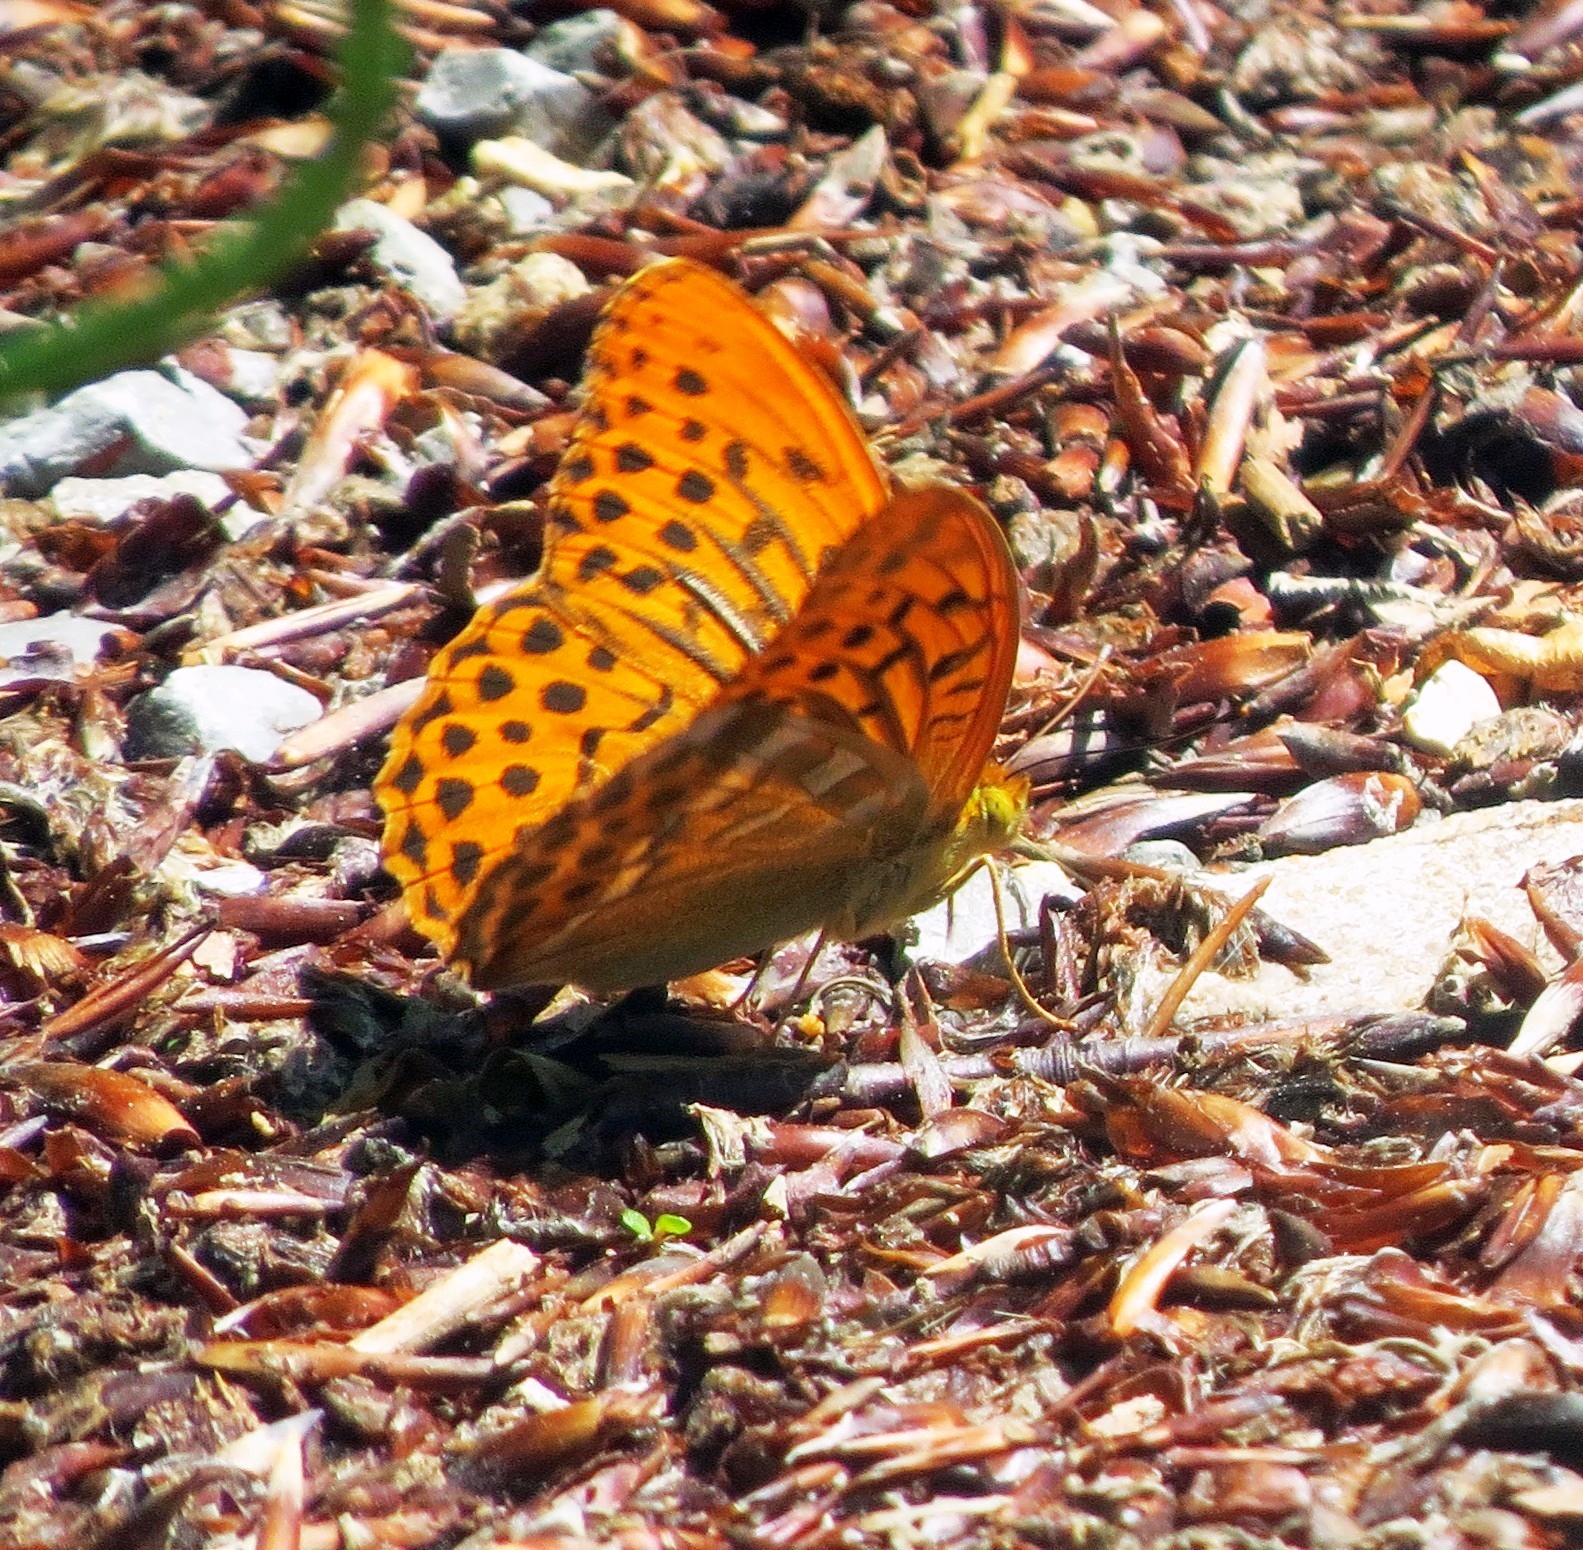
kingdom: Animalia
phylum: Arthropoda
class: Insecta
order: Lepidoptera
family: Nymphalidae
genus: Argynnis
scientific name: Argynnis paphia
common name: Silver-washed fritillary
